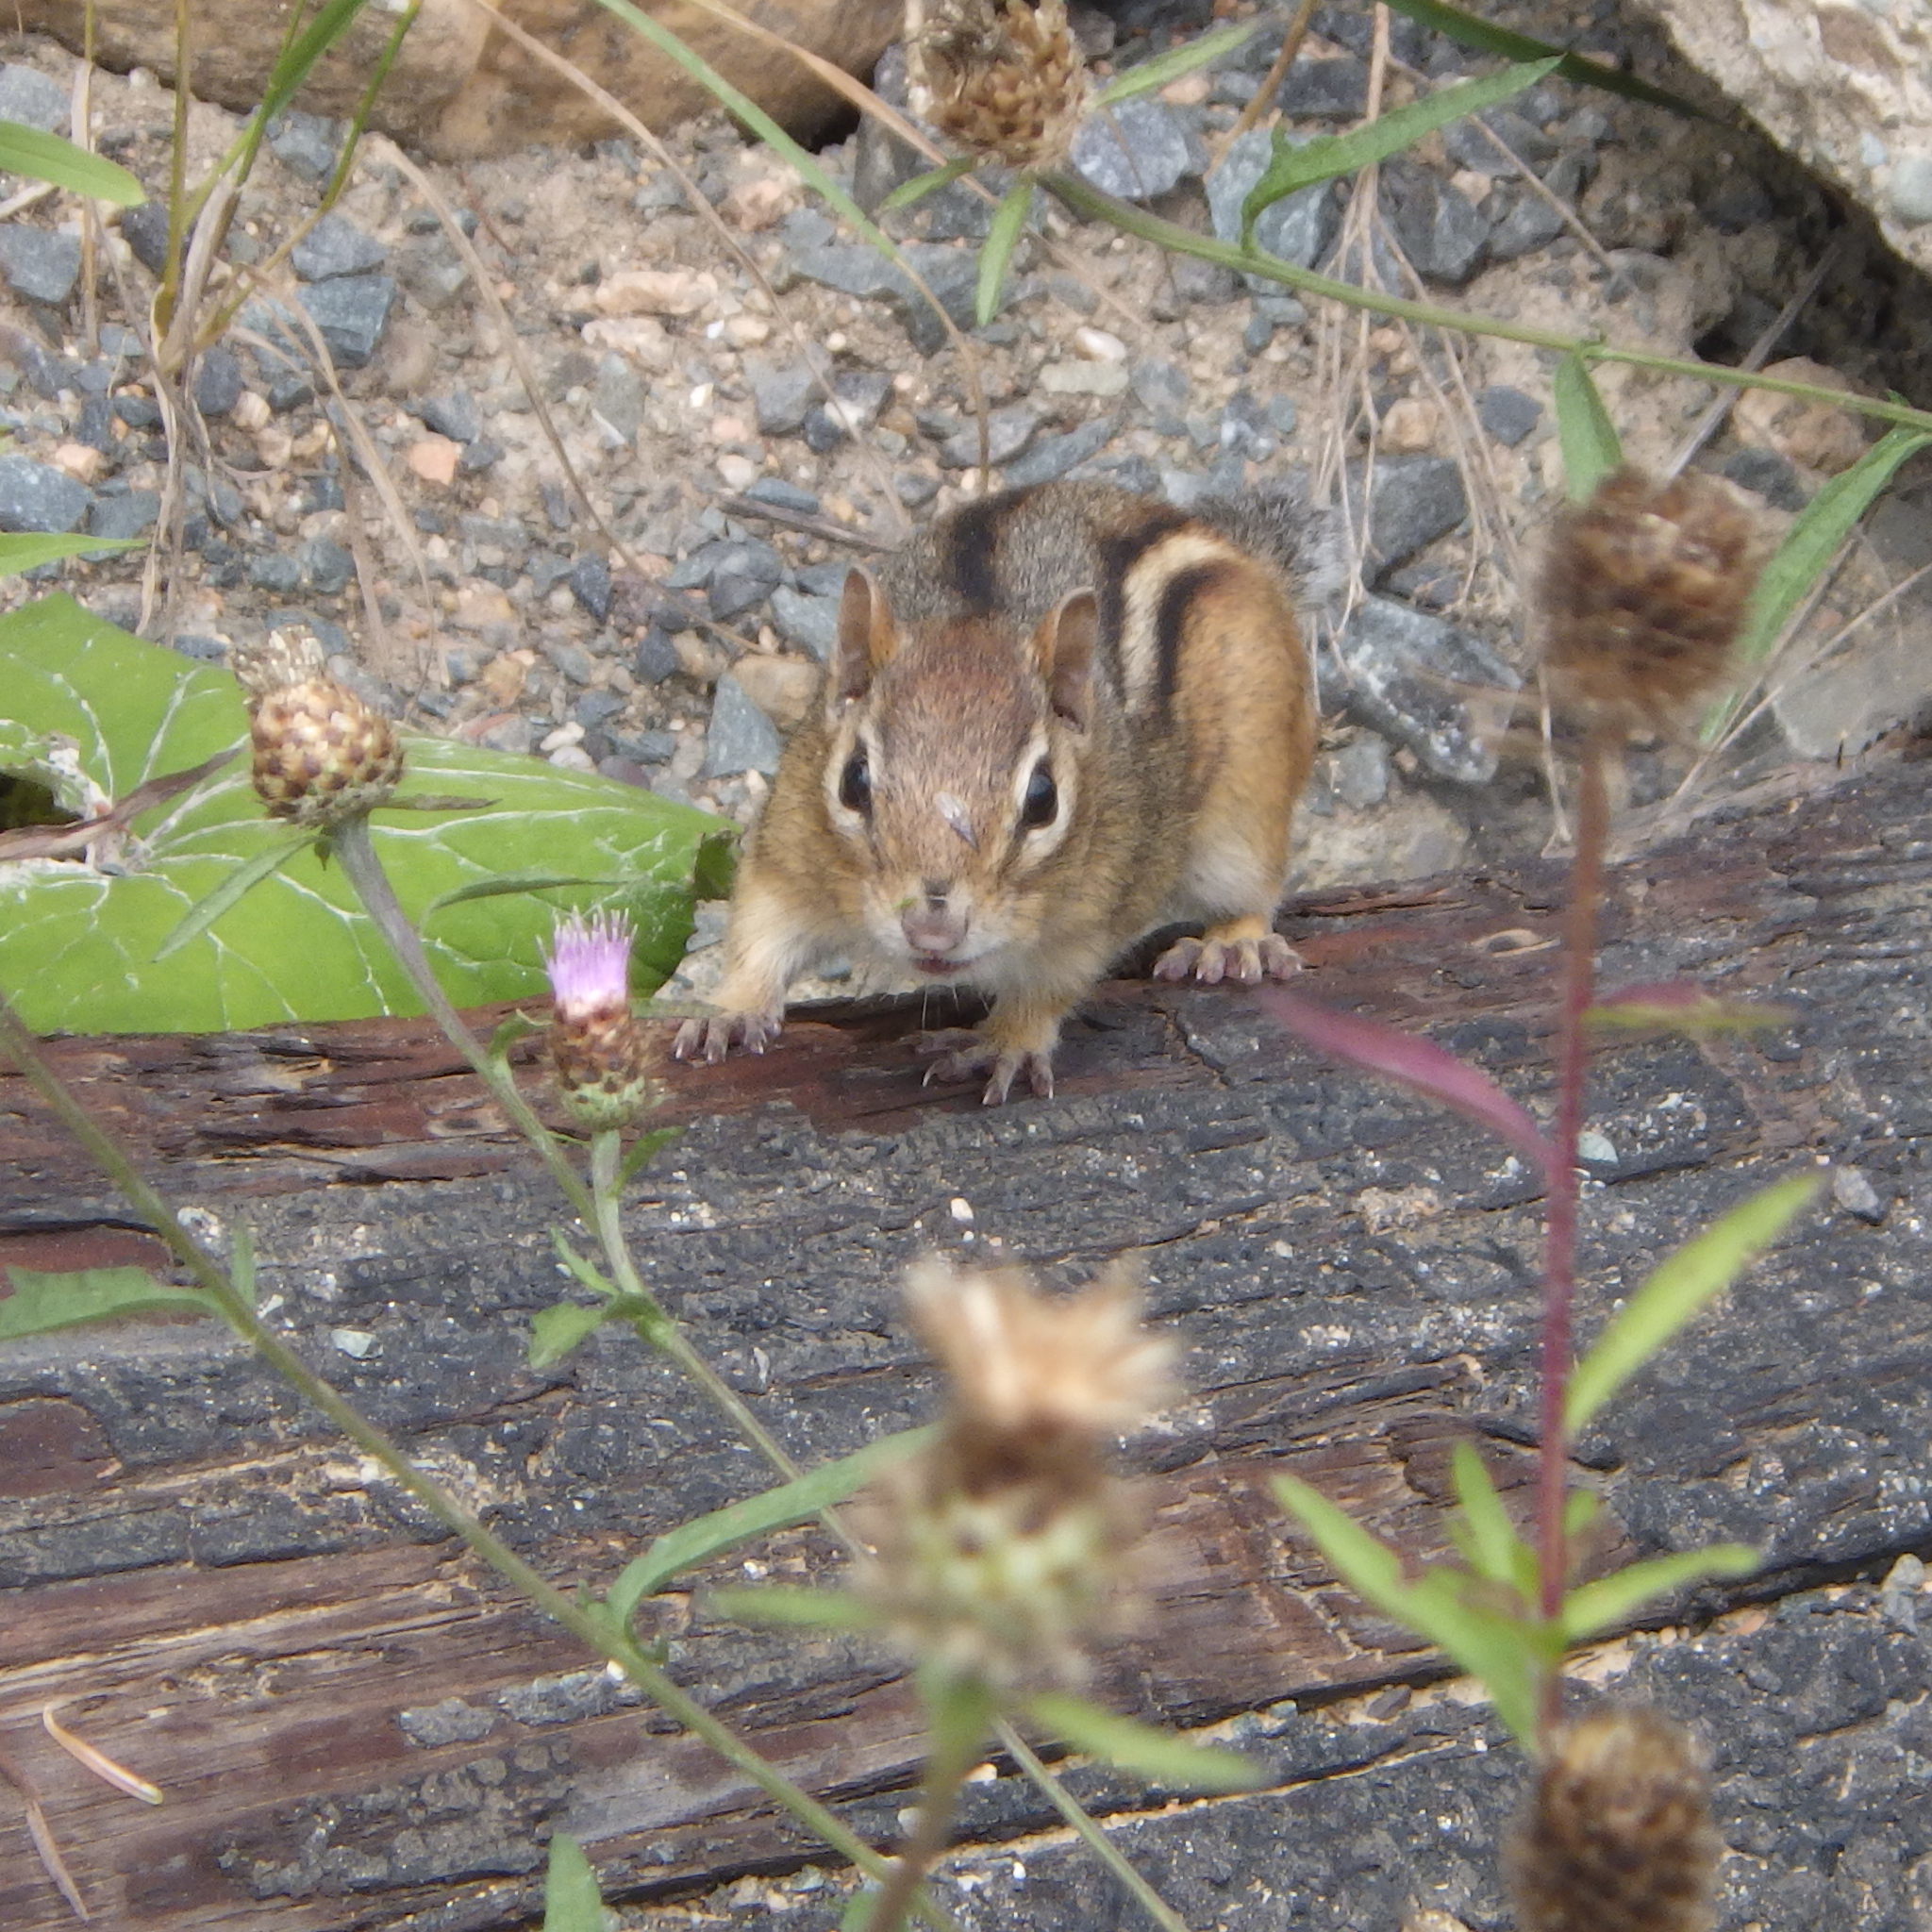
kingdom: Animalia
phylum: Chordata
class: Mammalia
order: Rodentia
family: Sciuridae
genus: Tamias
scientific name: Tamias striatus
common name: Eastern chipmunk
